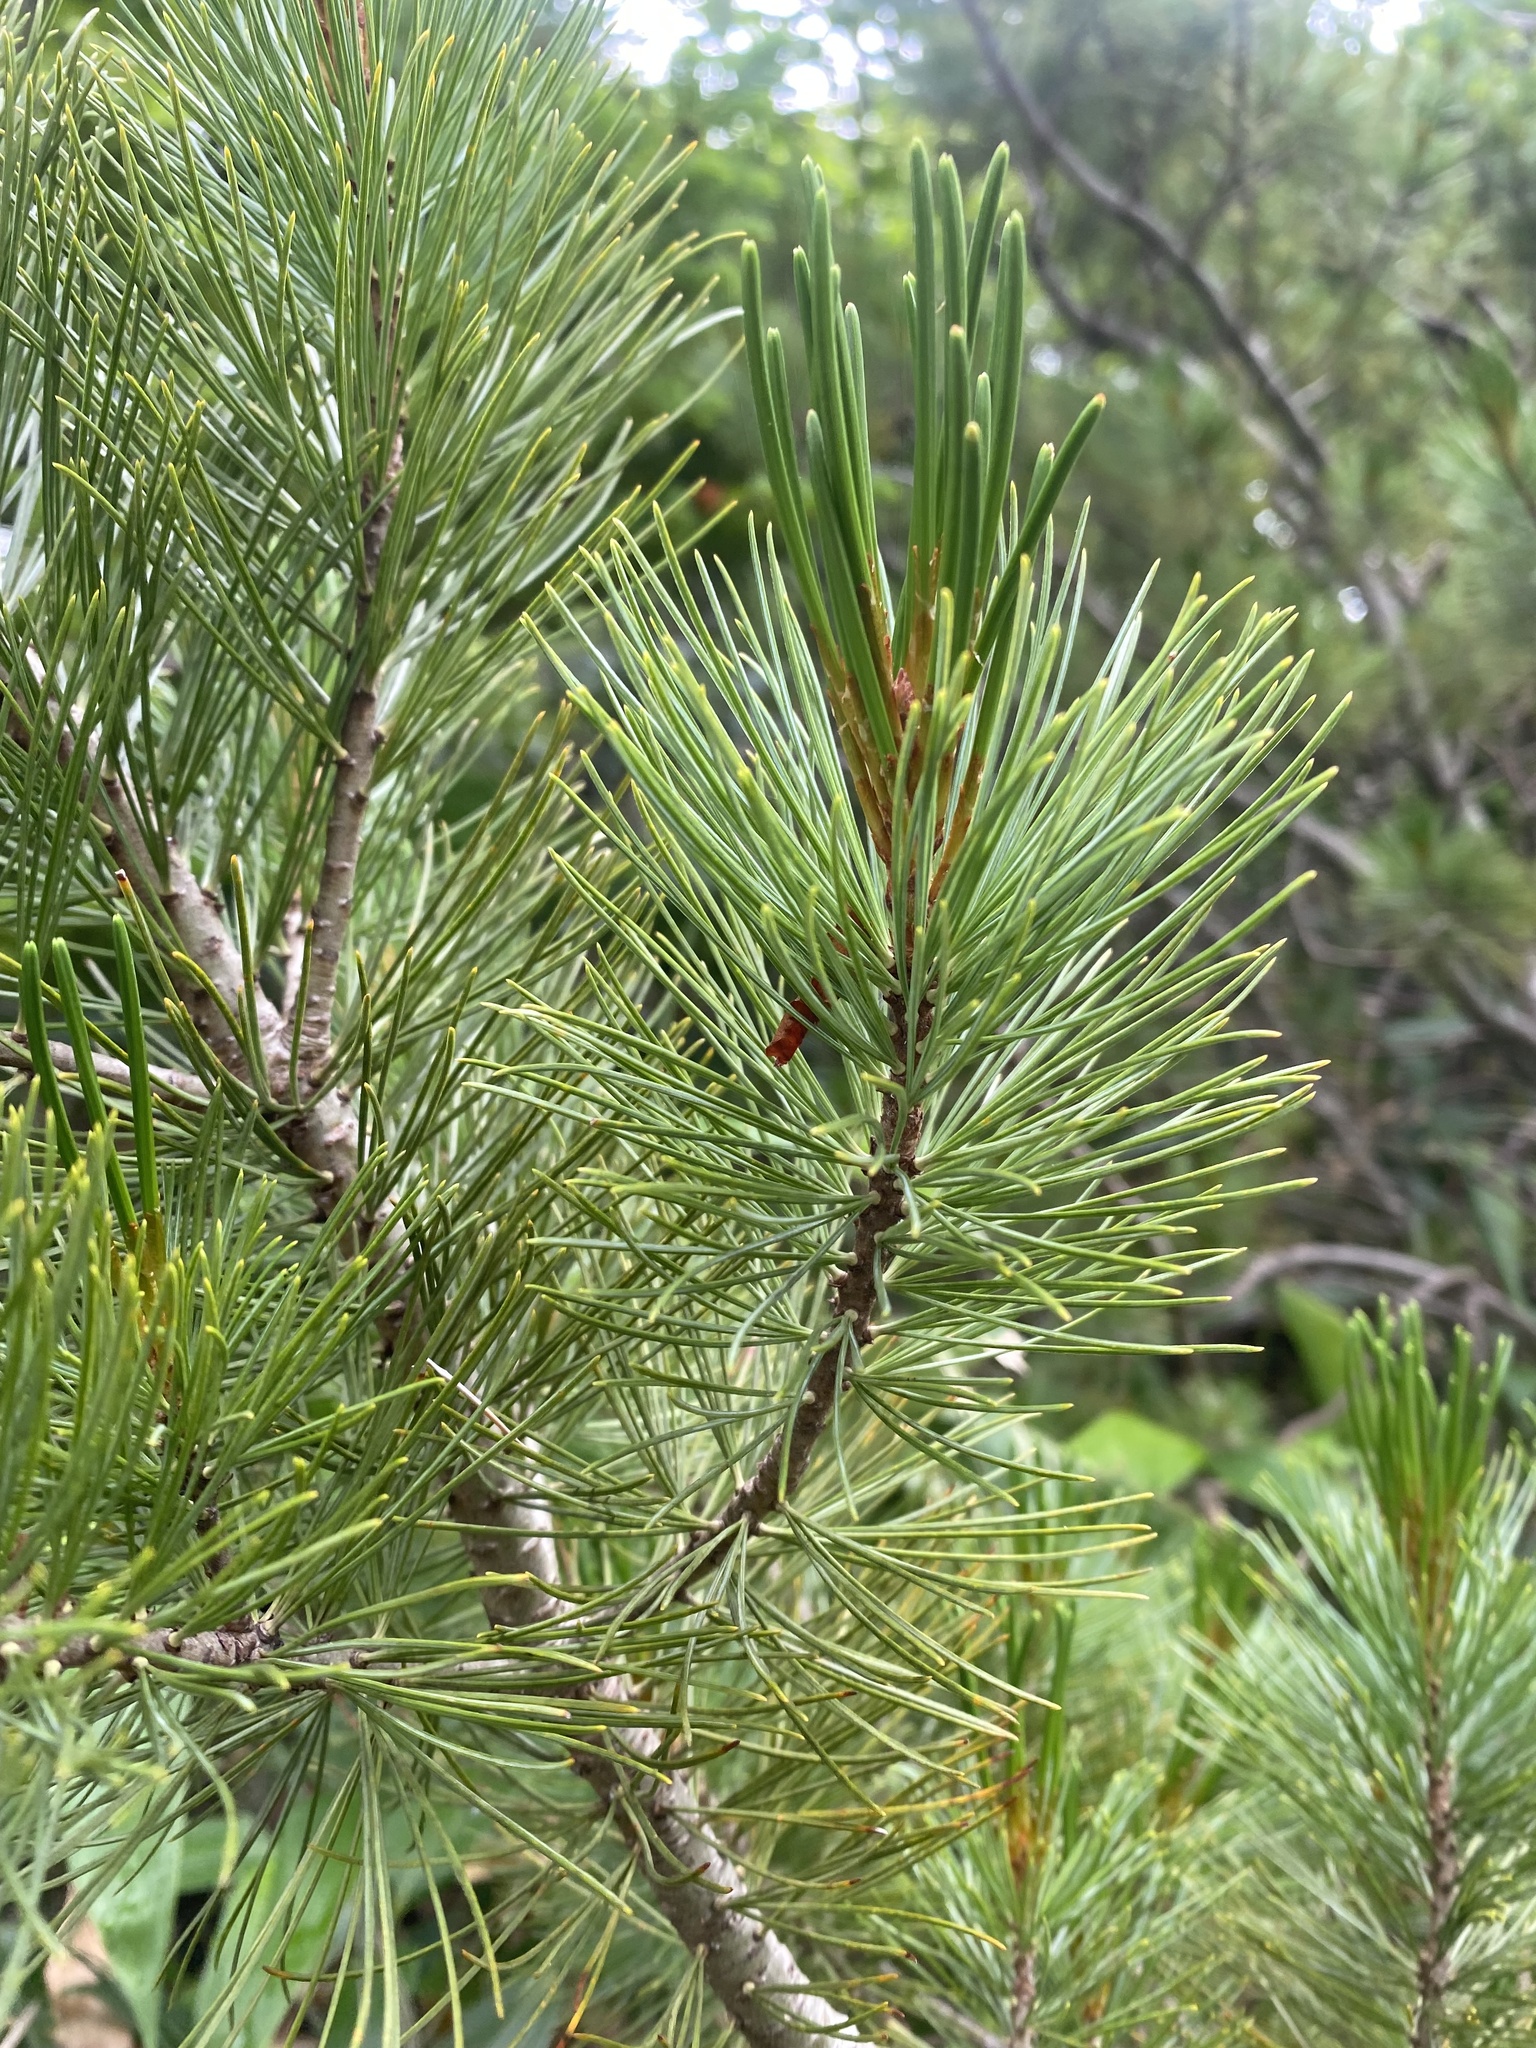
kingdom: Plantae
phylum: Tracheophyta
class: Pinopsida
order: Pinales
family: Pinaceae
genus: Pinus
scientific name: Pinus pumila
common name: Dwarf siberian pine
